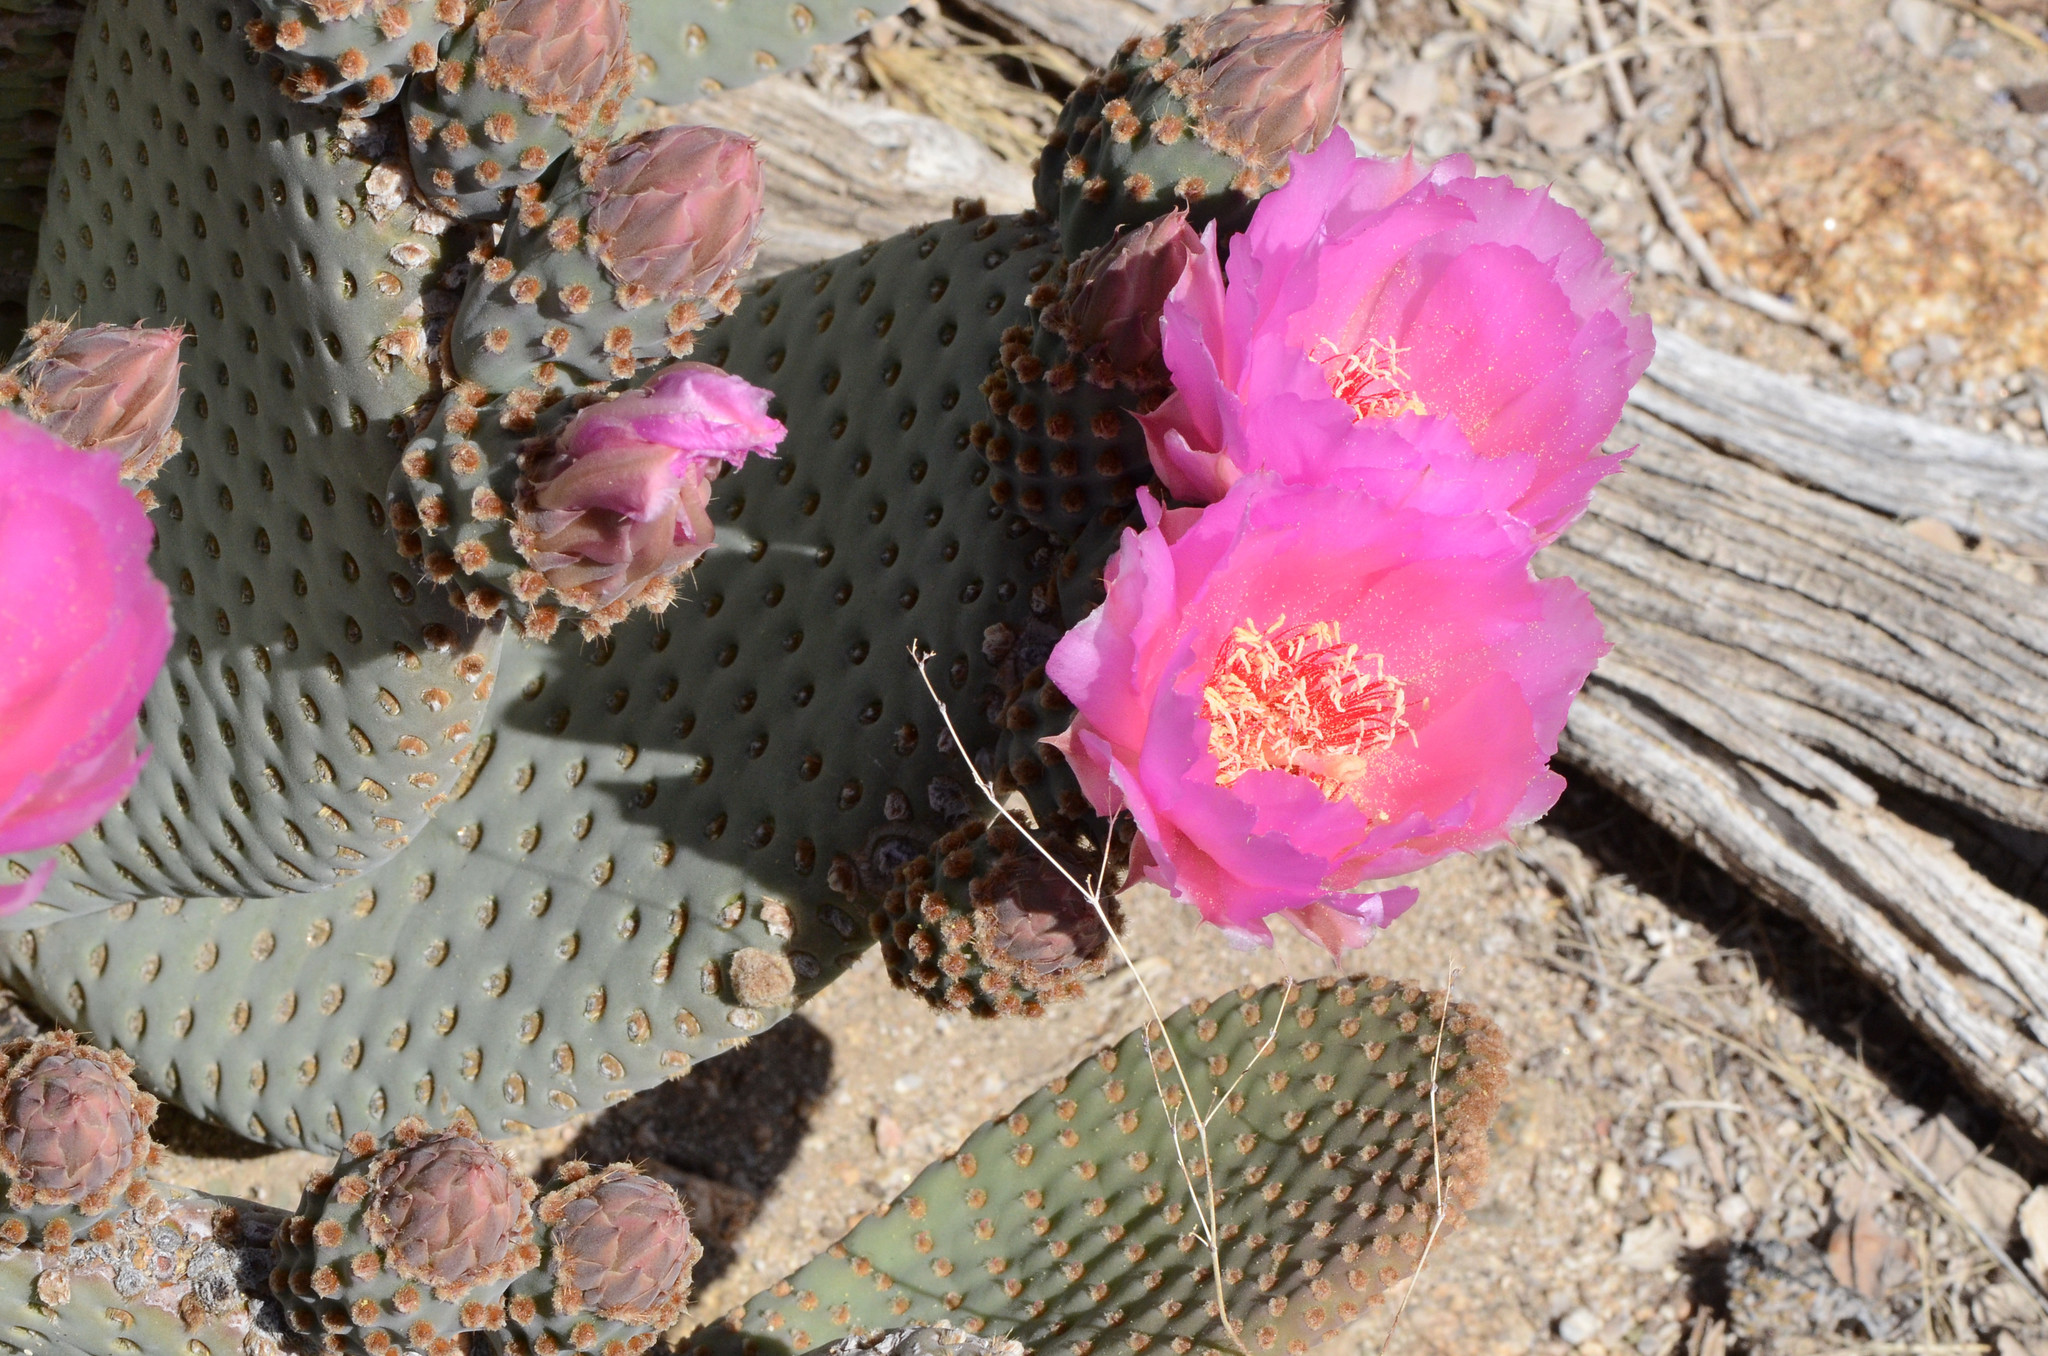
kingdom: Plantae
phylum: Tracheophyta
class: Magnoliopsida
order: Caryophyllales
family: Cactaceae
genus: Opuntia
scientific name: Opuntia basilaris
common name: Beavertail prickly-pear
